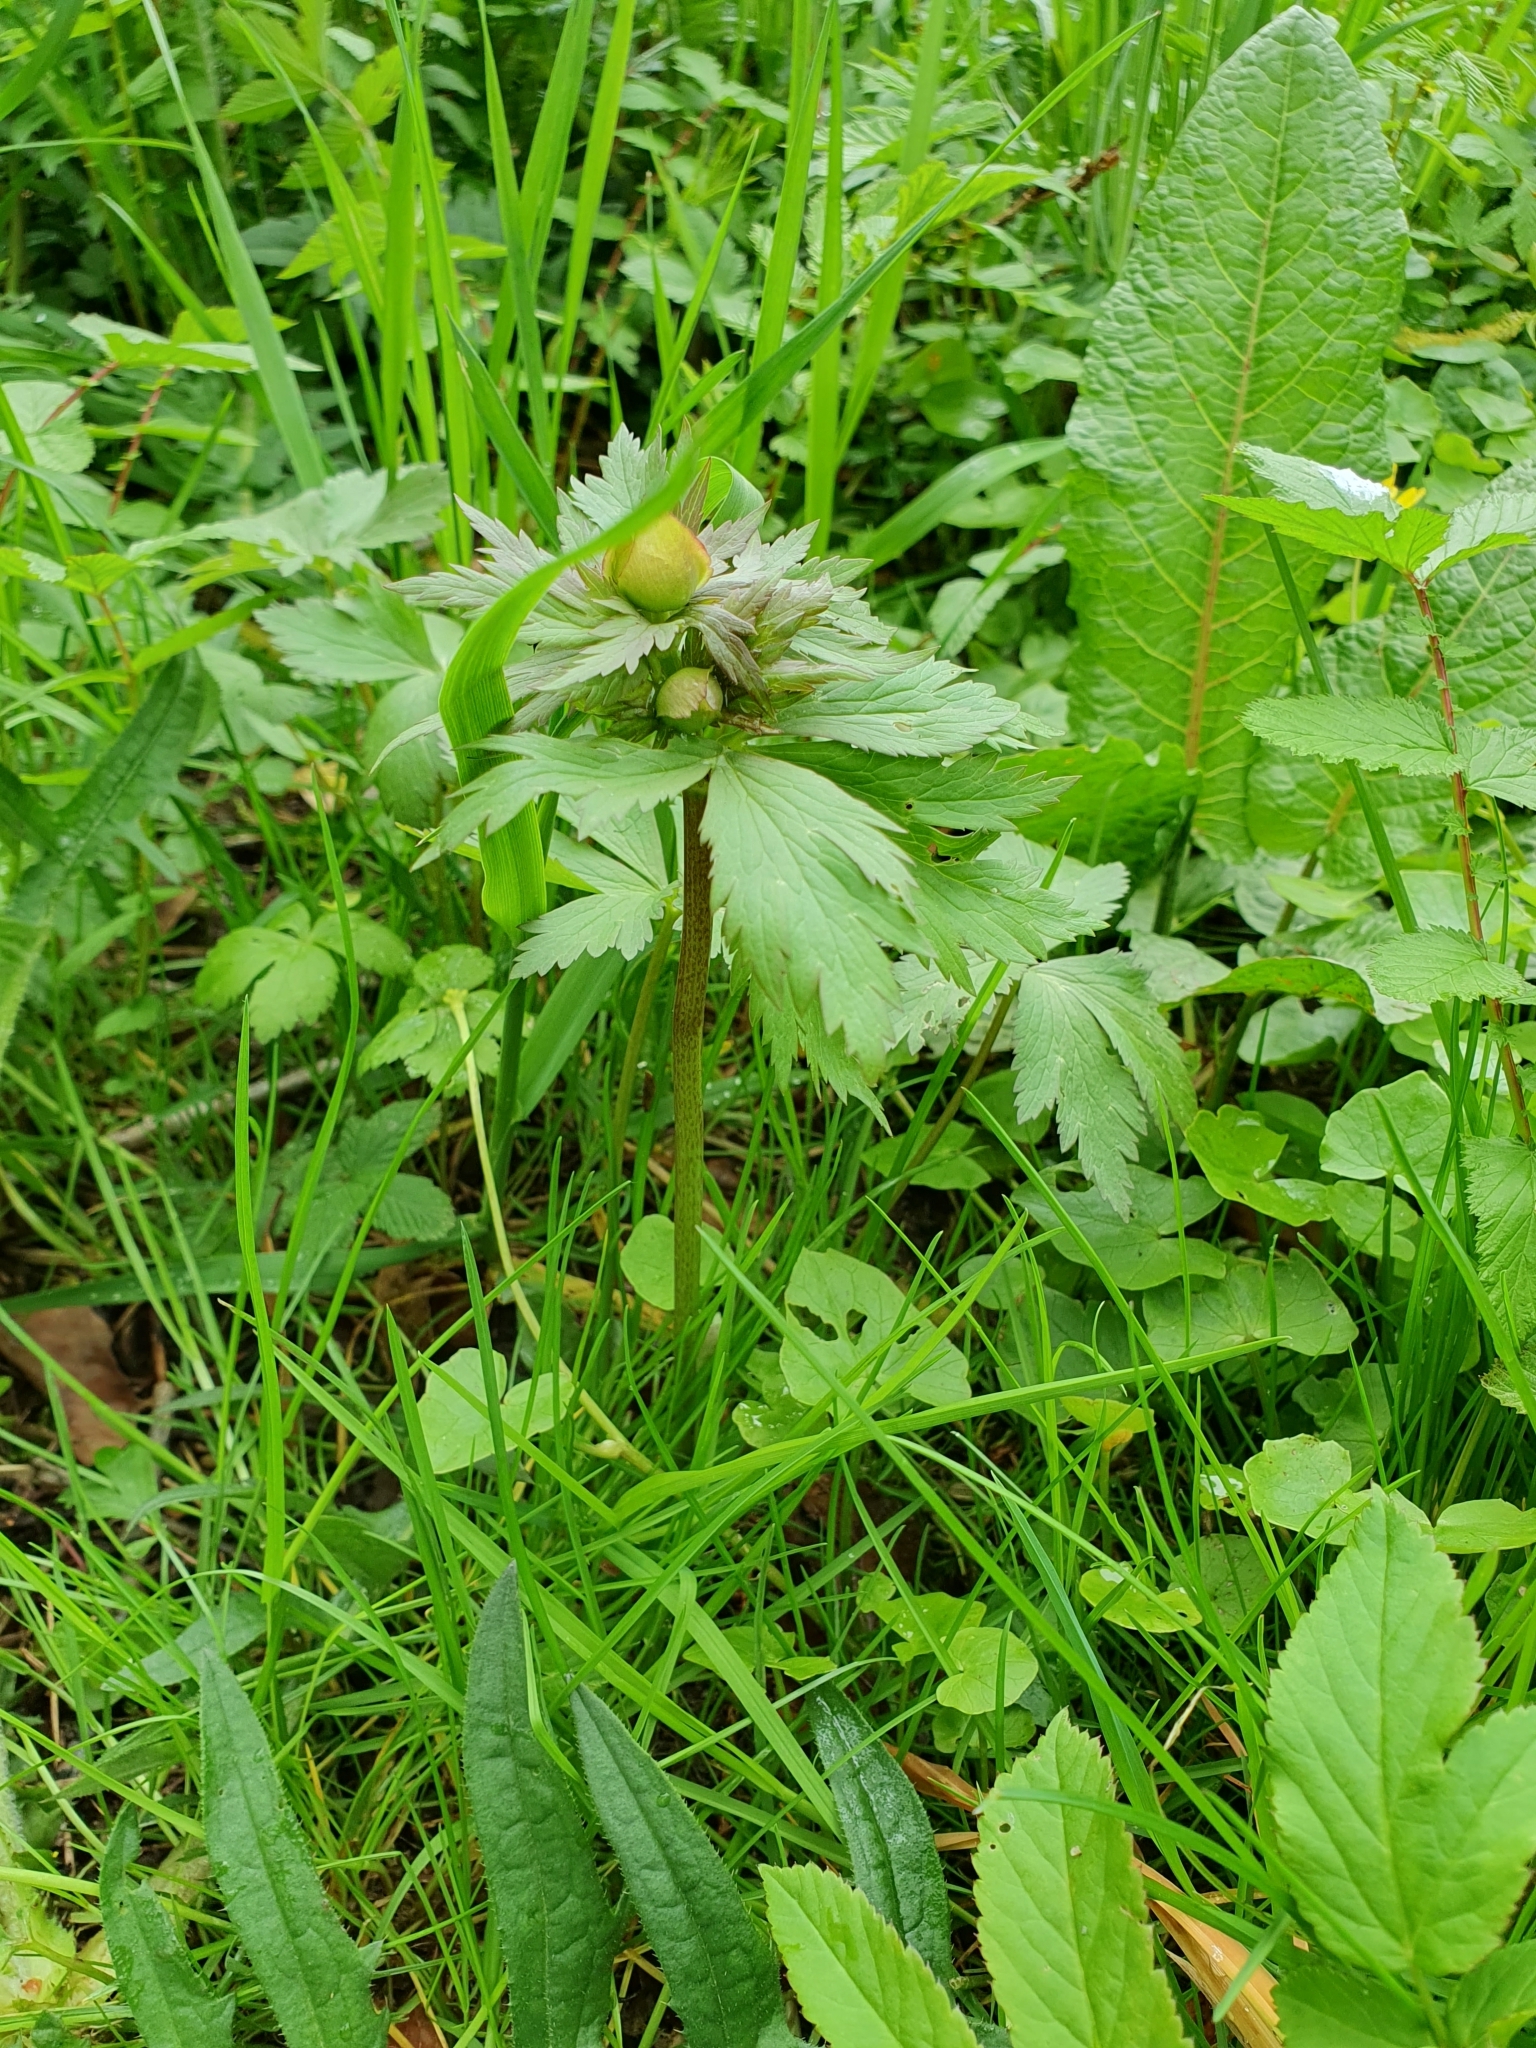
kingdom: Plantae
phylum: Tracheophyta
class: Magnoliopsida
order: Ranunculales
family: Ranunculaceae
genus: Trollius
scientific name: Trollius europaeus
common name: European globeflower
